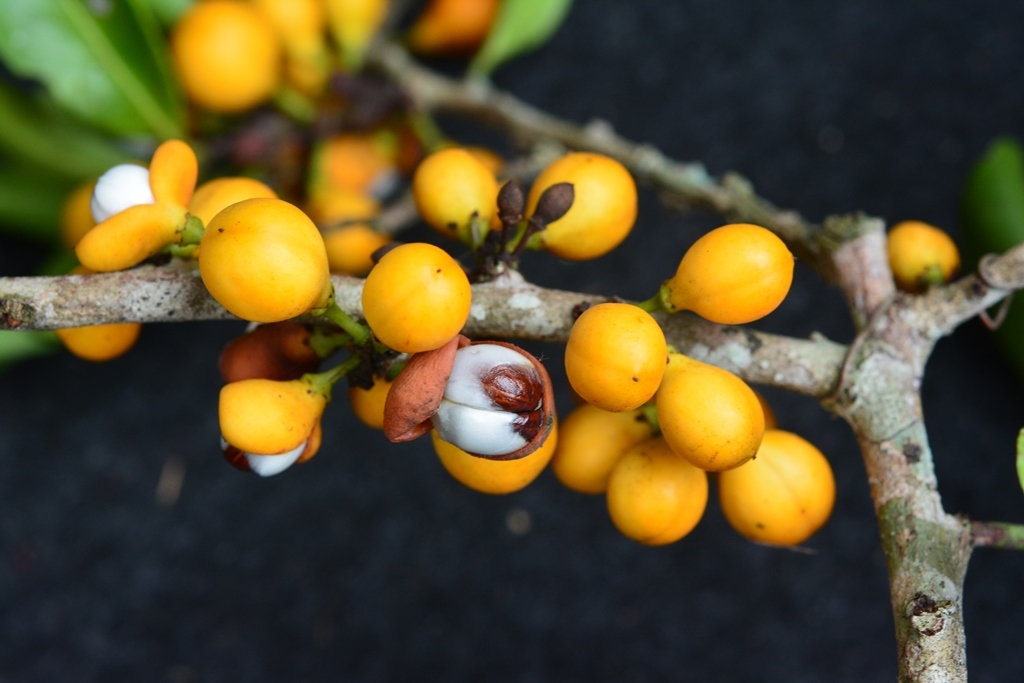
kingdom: Plantae
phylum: Tracheophyta
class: Magnoliopsida
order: Celastrales
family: Celastraceae
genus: Monteverdia
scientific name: Monteverdia stipitata
